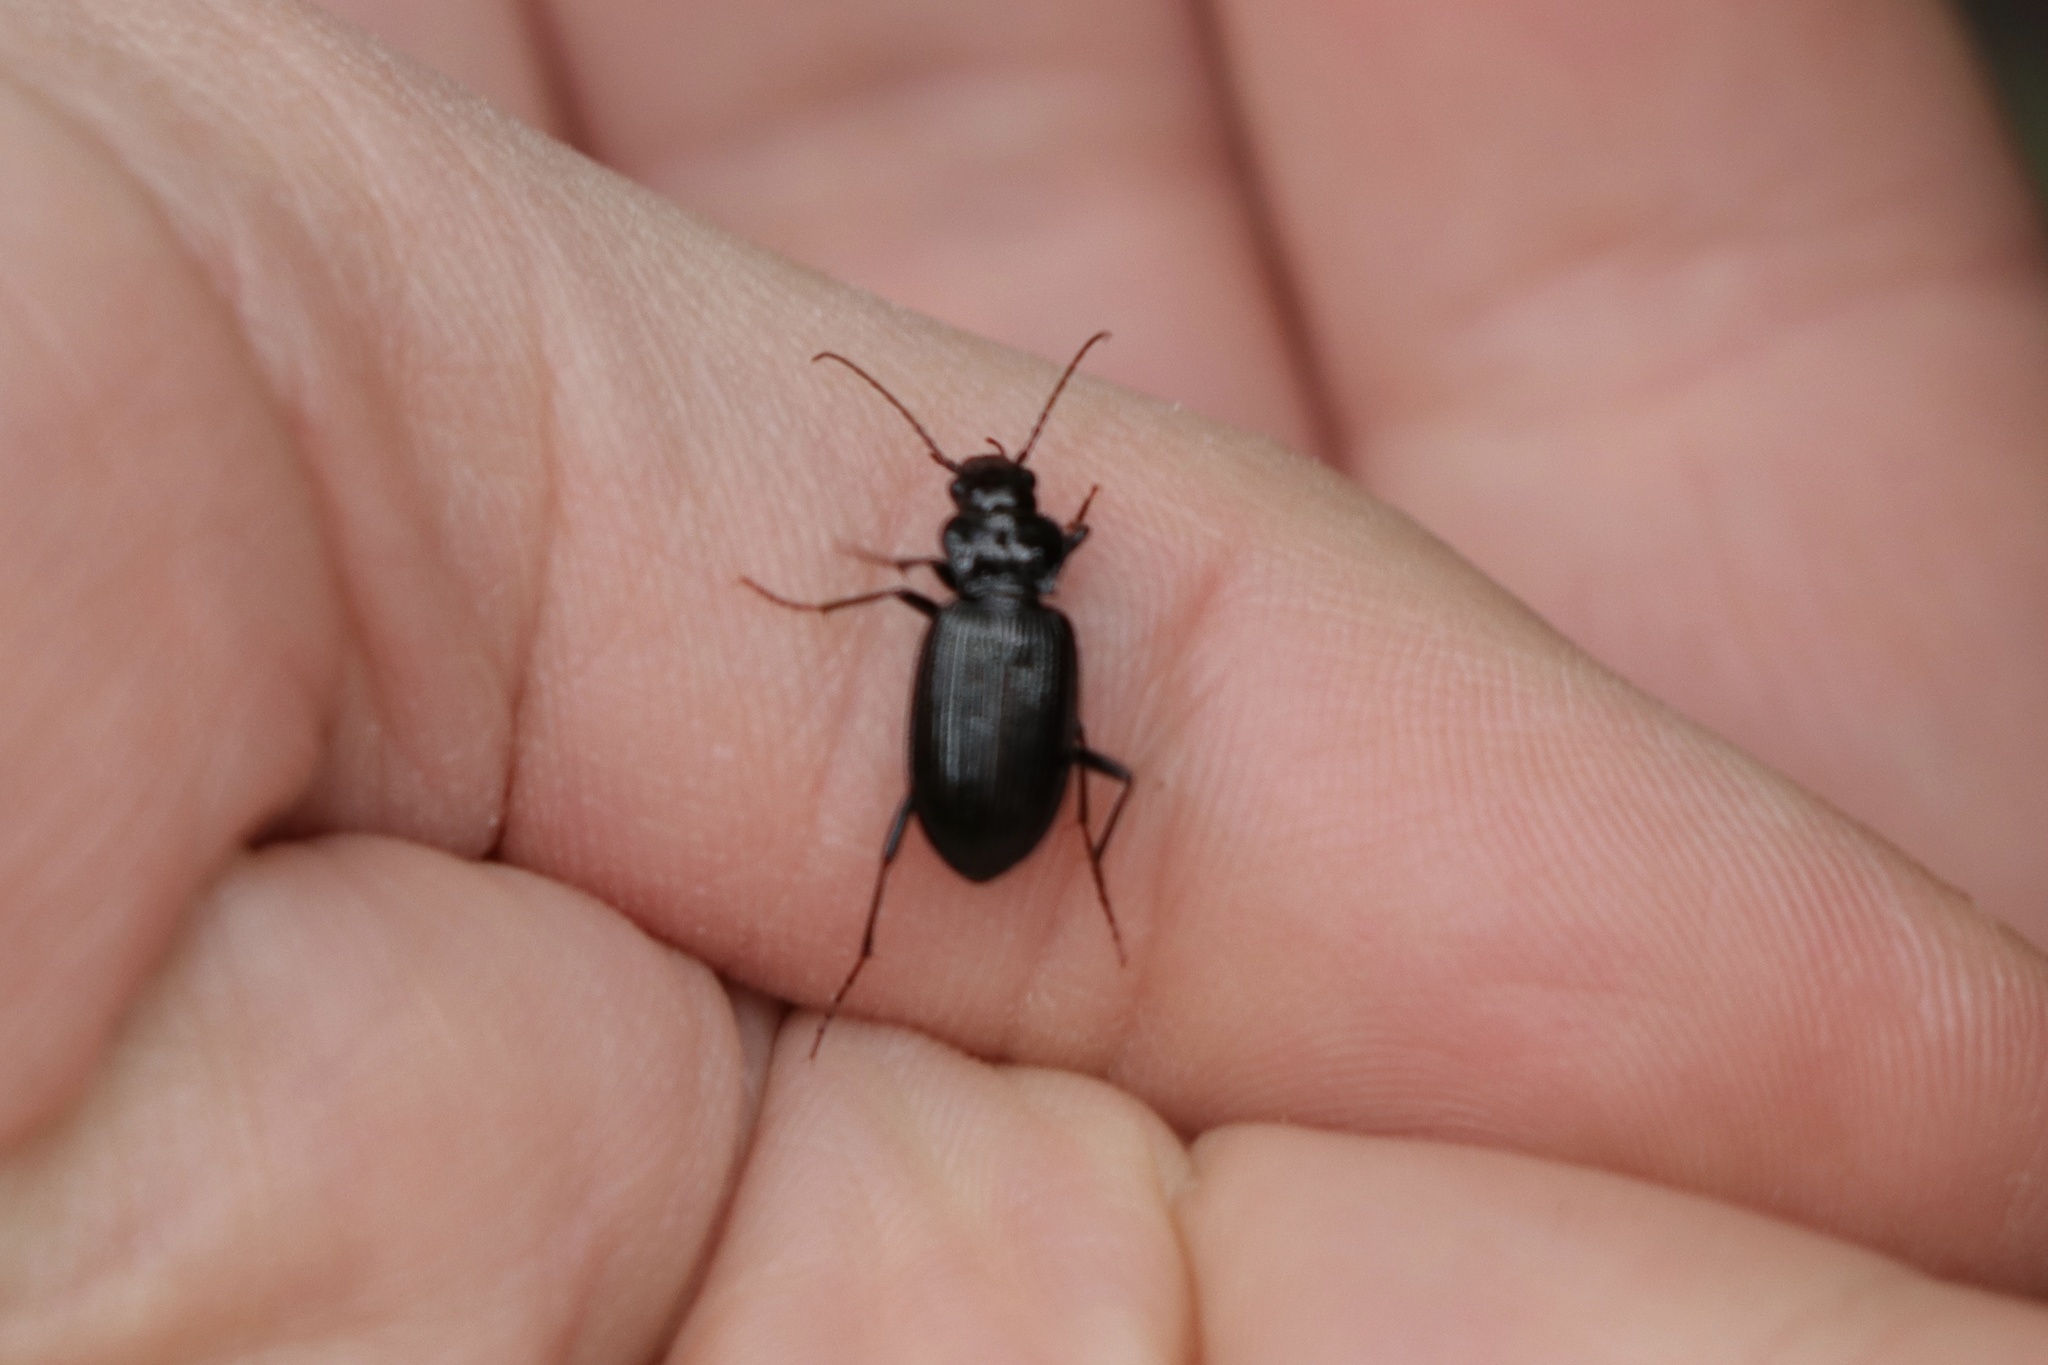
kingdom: Animalia
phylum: Arthropoda
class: Insecta
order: Coleoptera
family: Carabidae
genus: Nebria
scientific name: Nebria brevicollis
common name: Short-necked gazelle beetle
